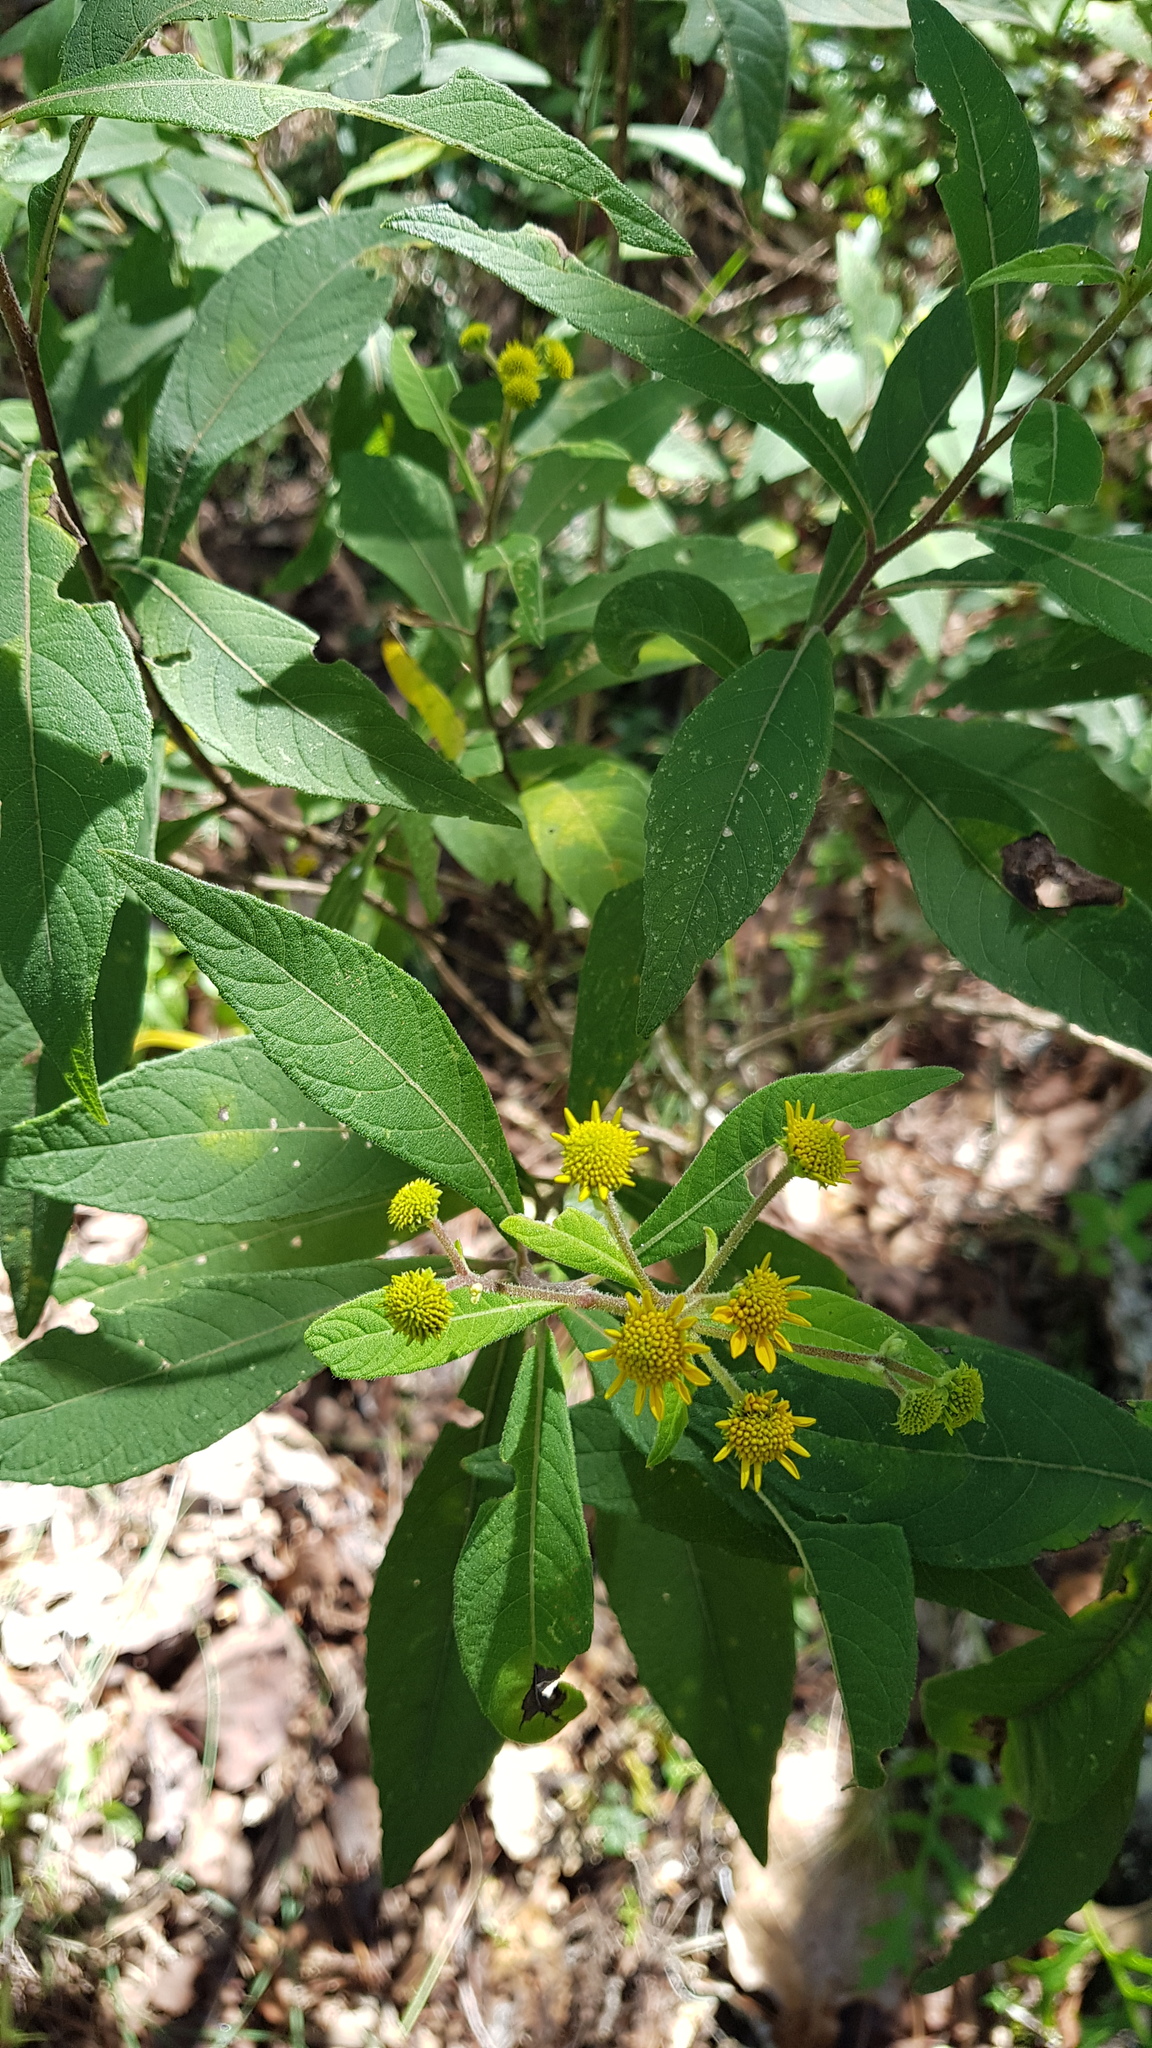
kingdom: Plantae
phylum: Tracheophyta
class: Magnoliopsida
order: Asterales
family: Asteraceae
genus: Verbesina
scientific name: Verbesina virgata
